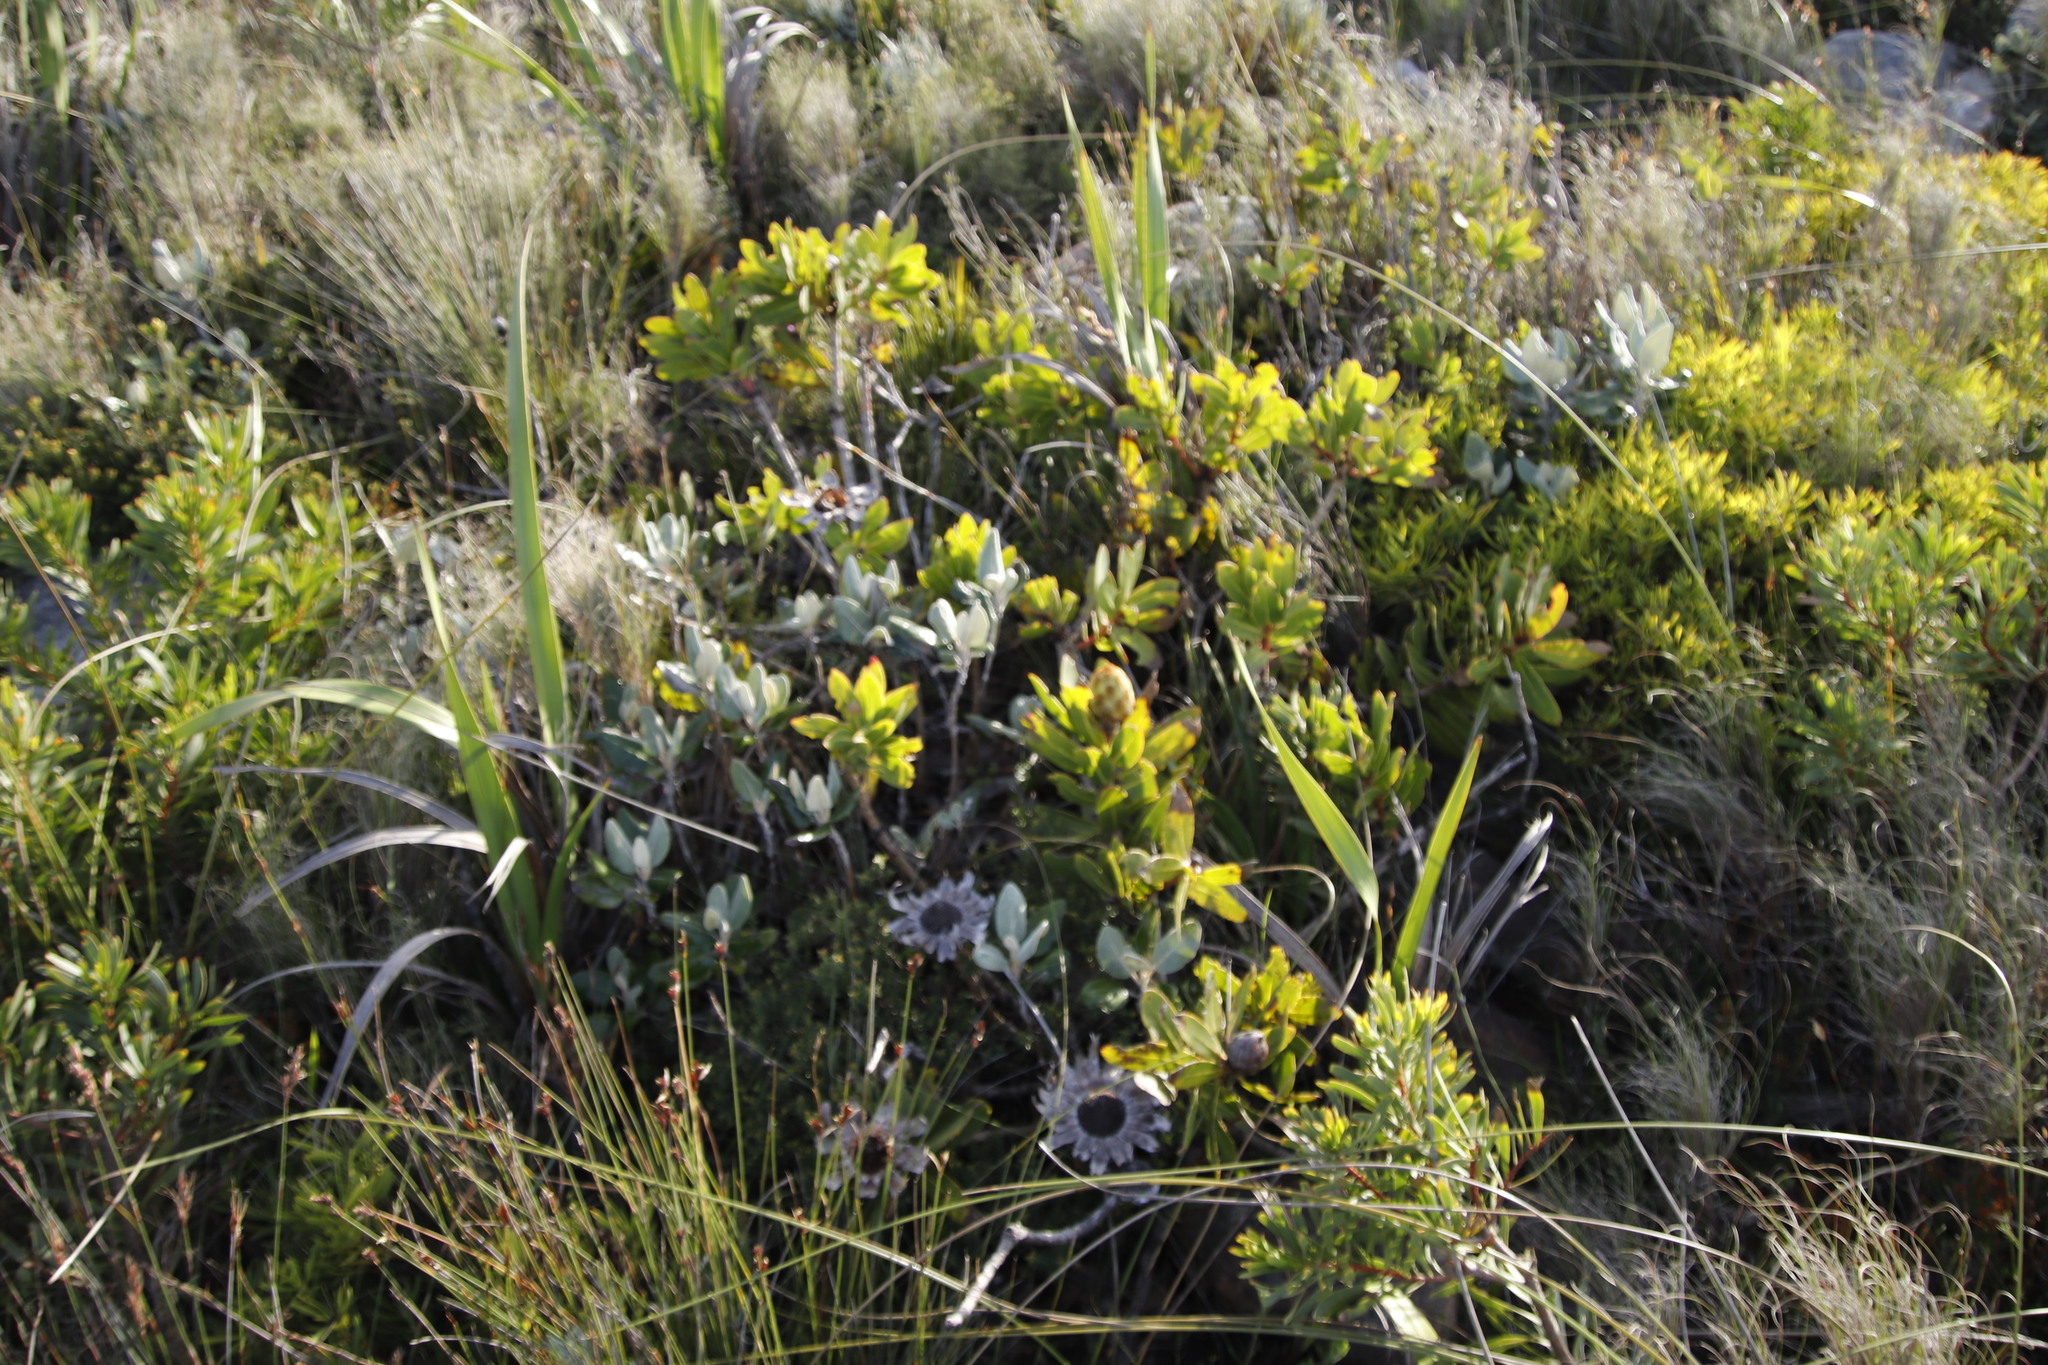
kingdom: Plantae
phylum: Tracheophyta
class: Magnoliopsida
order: Proteales
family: Proteaceae
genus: Protea
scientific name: Protea nitida
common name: Tree protea
